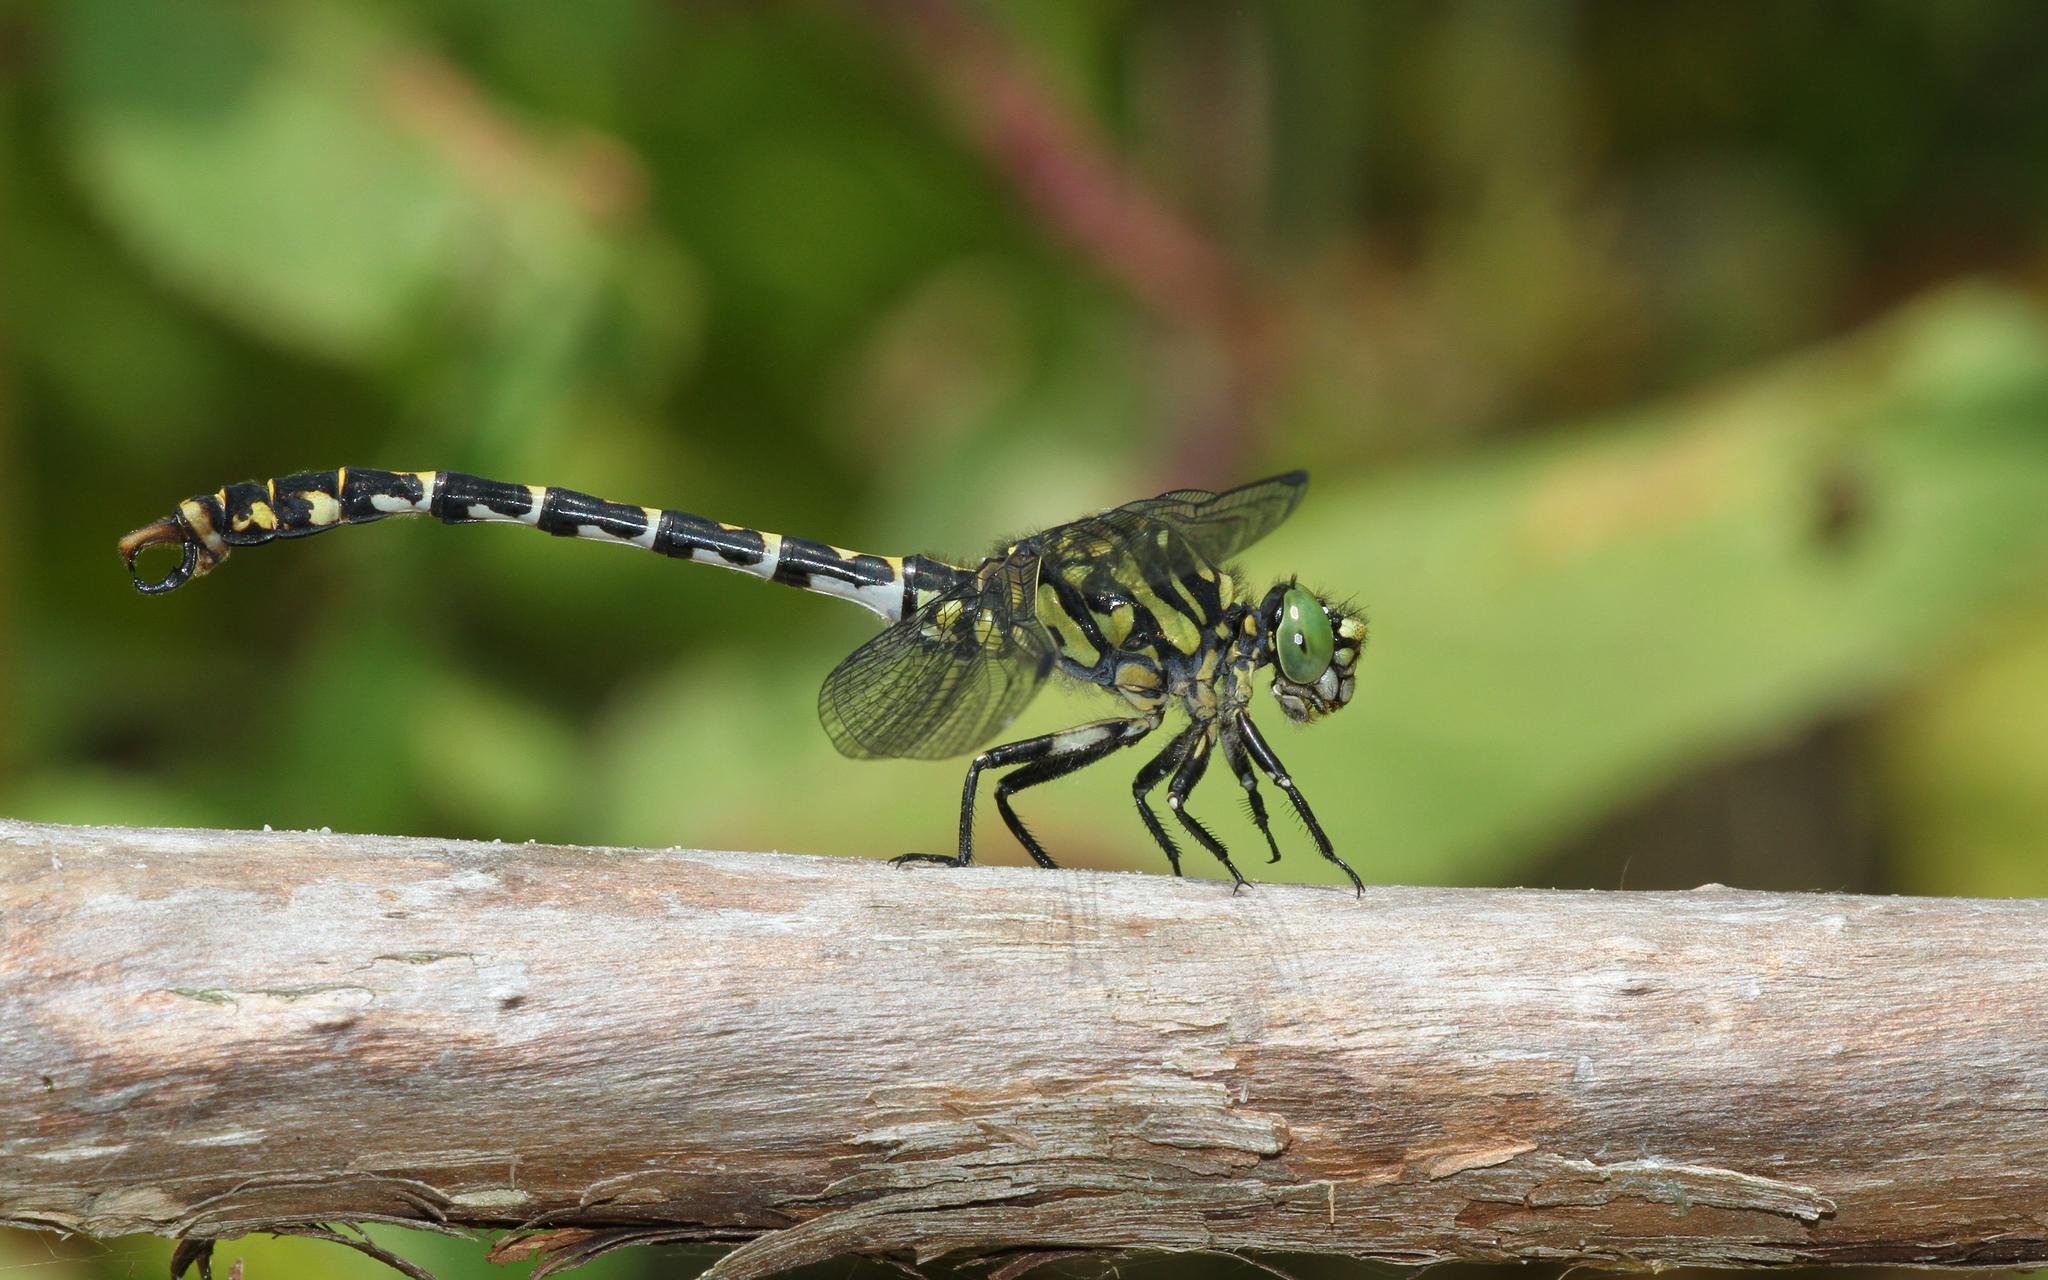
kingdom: Animalia
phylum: Arthropoda
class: Insecta
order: Odonata
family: Gomphidae
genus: Onychogomphus
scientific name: Onychogomphus forcipatus
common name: Small pincertail
